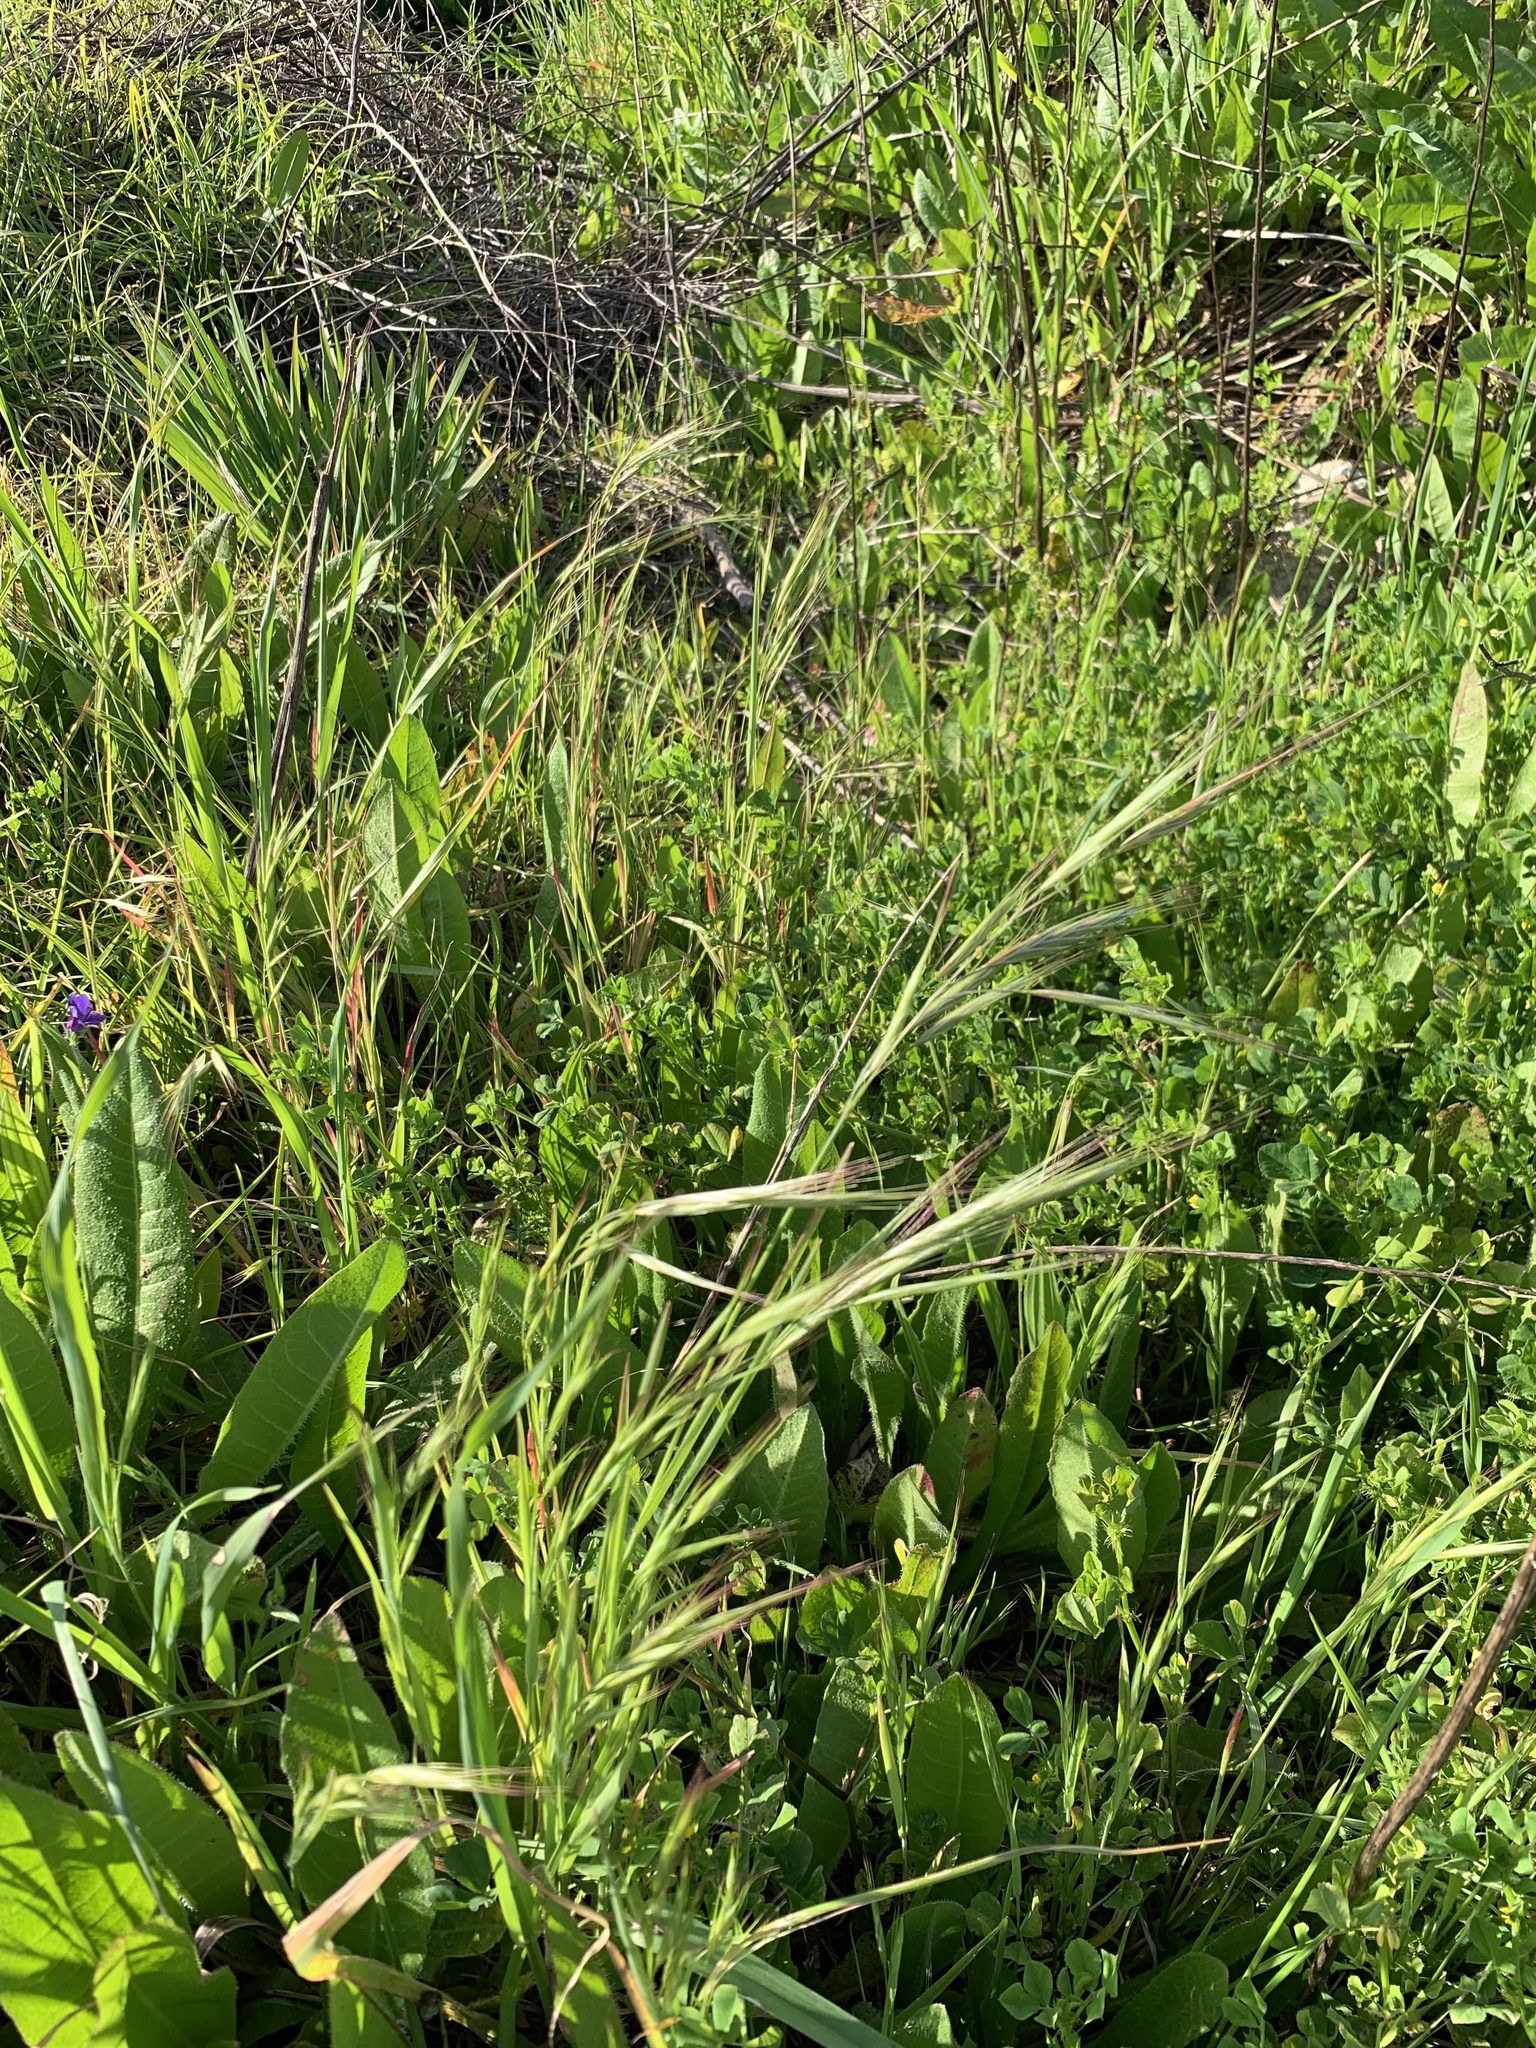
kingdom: Plantae
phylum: Tracheophyta
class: Liliopsida
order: Poales
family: Poaceae
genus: Bromus
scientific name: Bromus diandrus
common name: Ripgut brome
